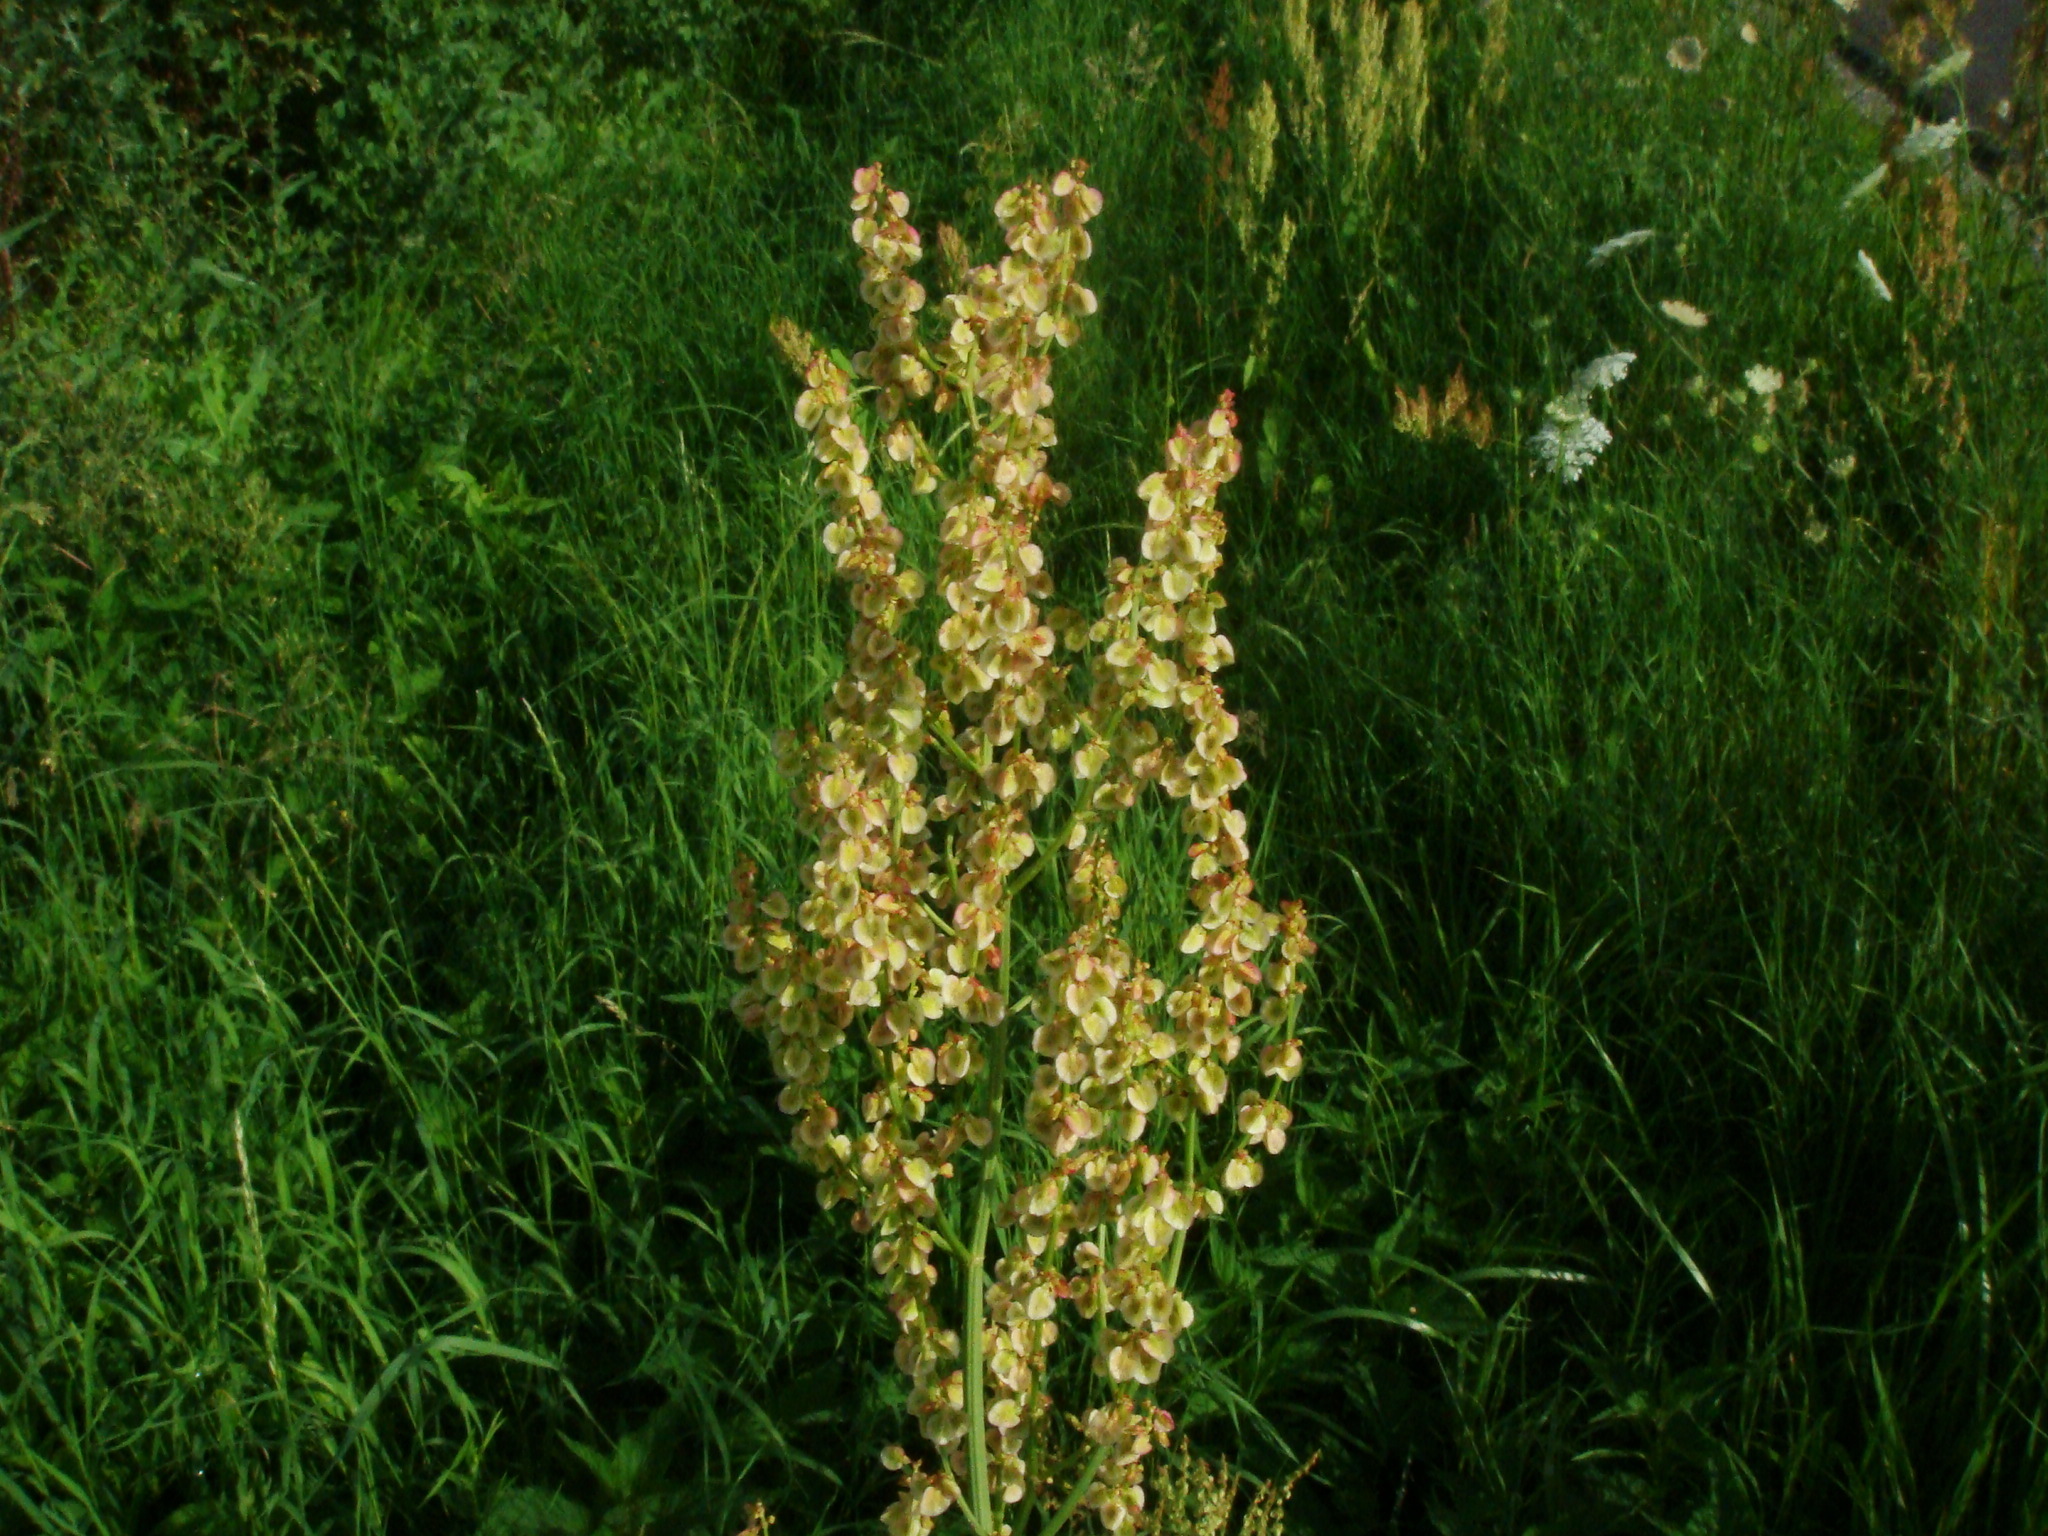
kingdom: Plantae
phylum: Tracheophyta
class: Magnoliopsida
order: Caryophyllales
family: Polygonaceae
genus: Rumex
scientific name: Rumex thyrsiflorus
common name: Garden sorrel
